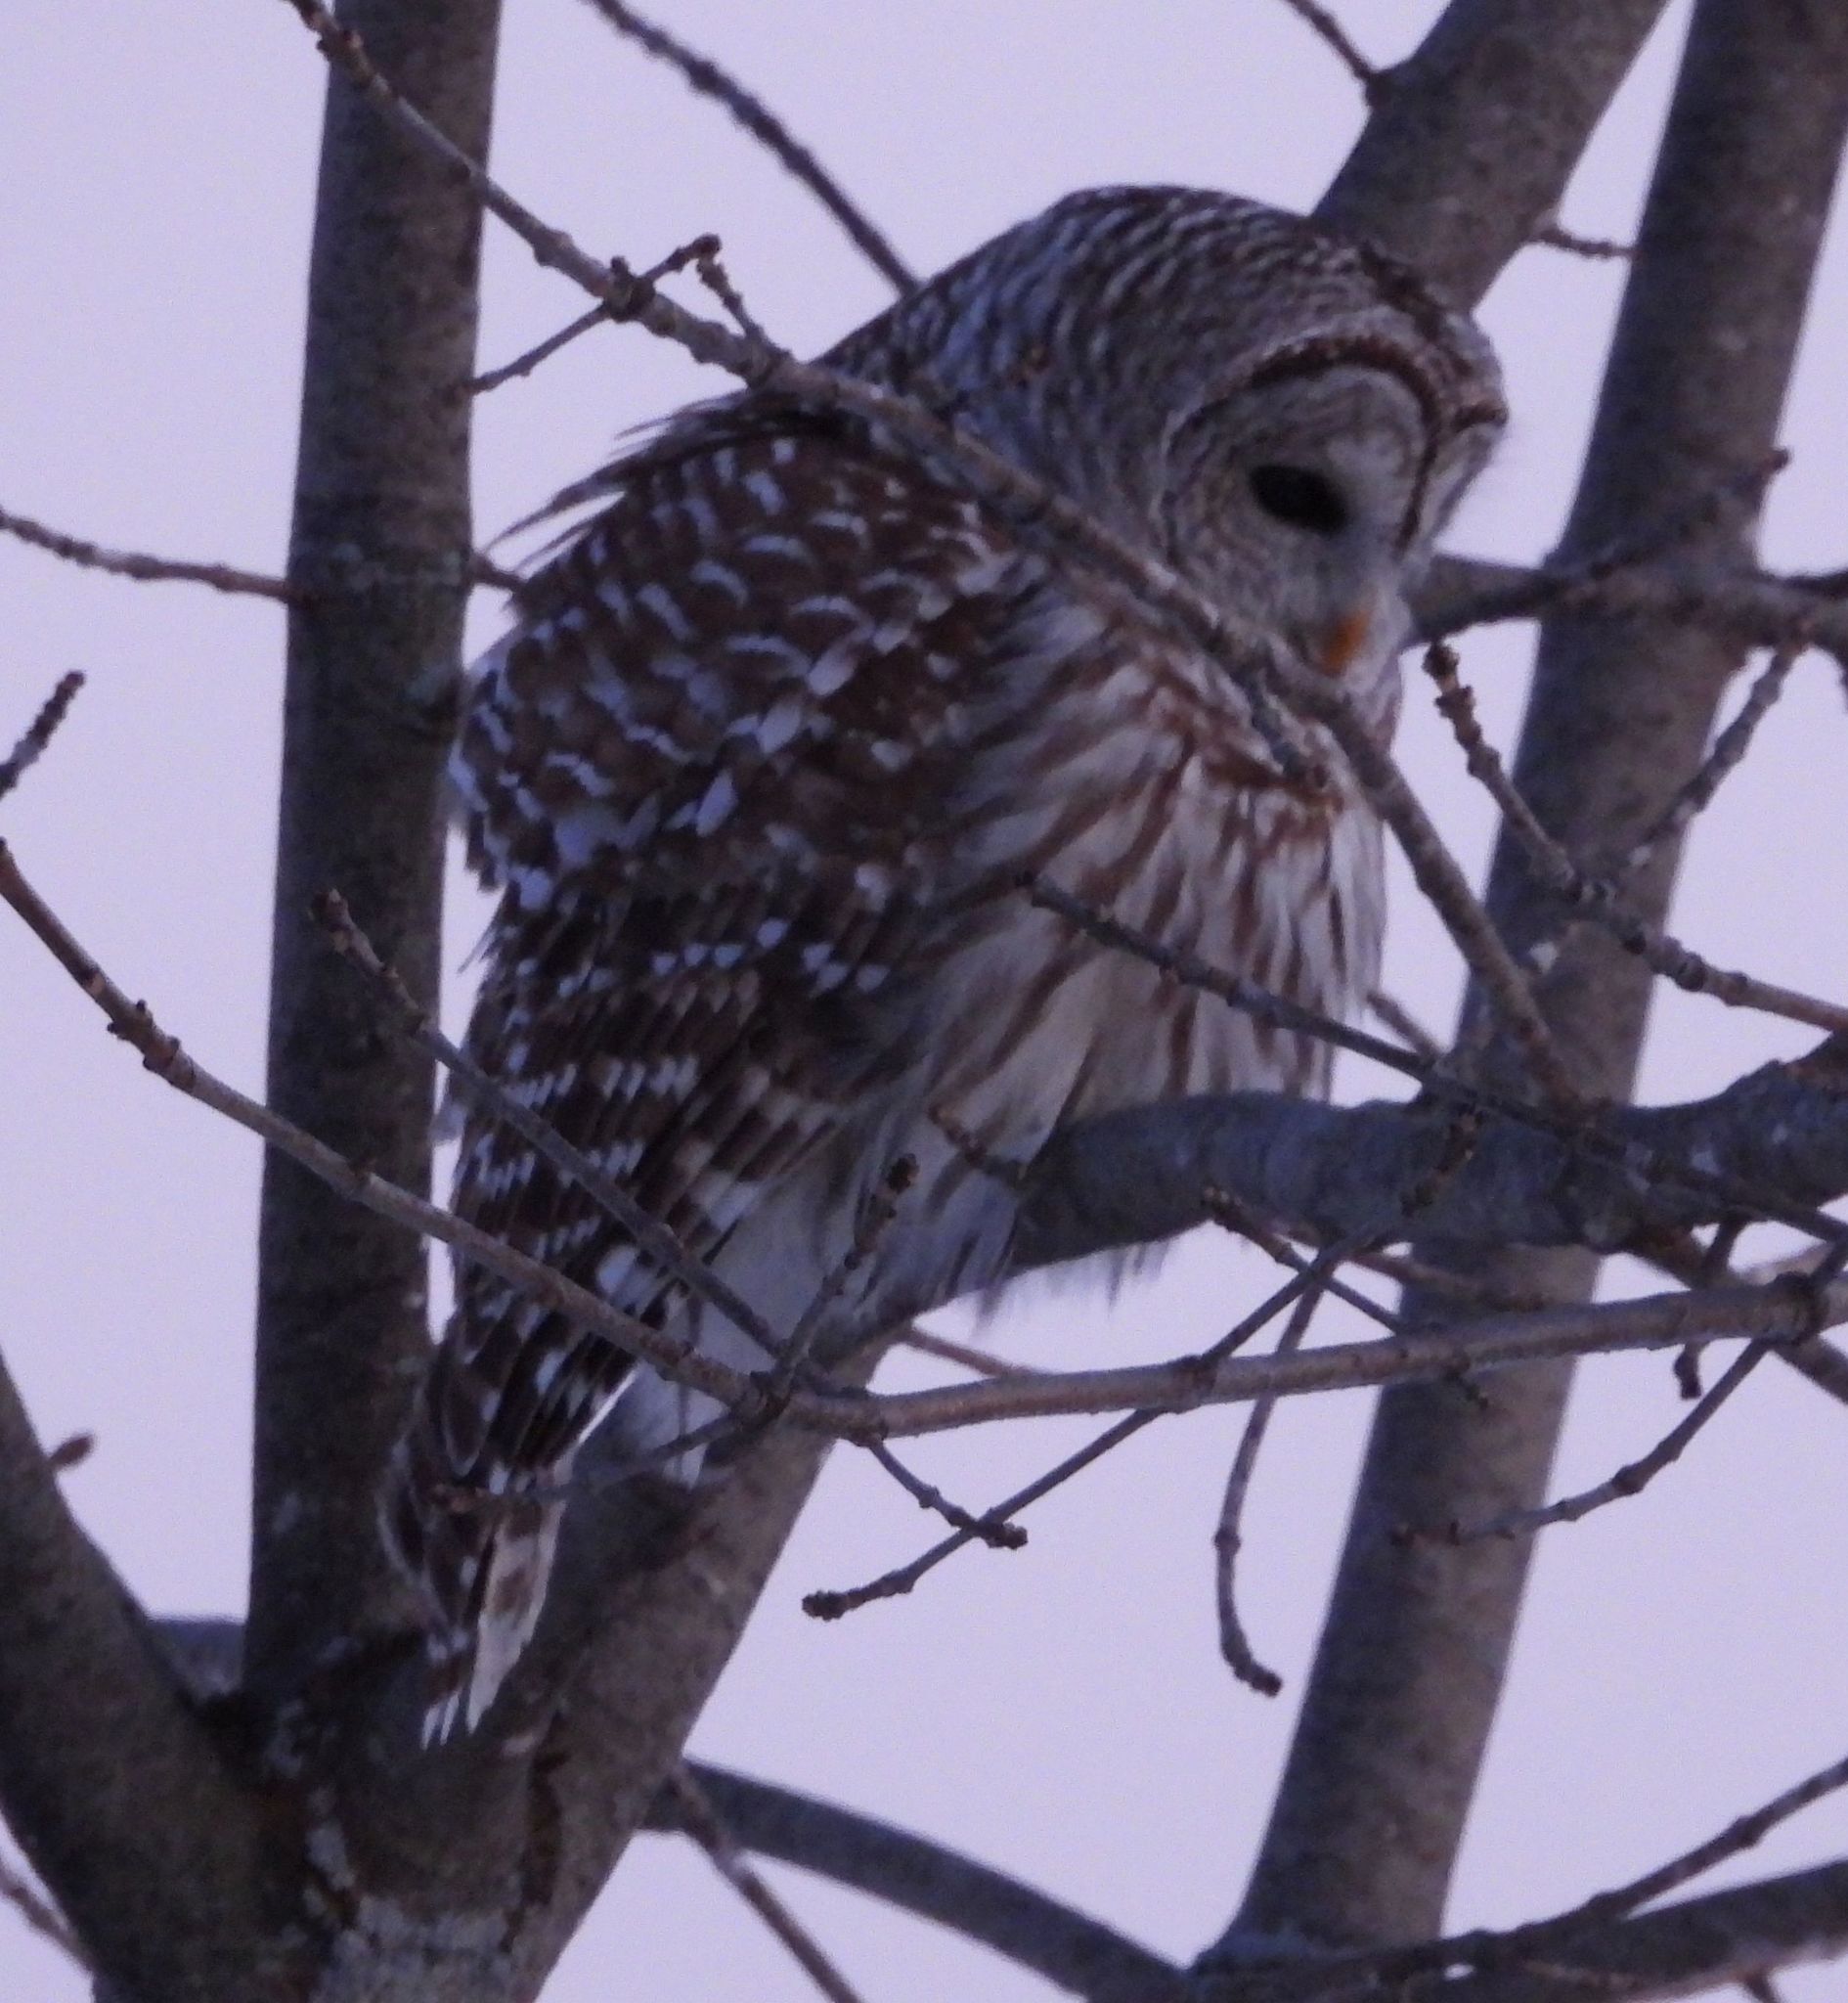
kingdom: Animalia
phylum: Chordata
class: Aves
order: Strigiformes
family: Strigidae
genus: Strix
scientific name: Strix varia
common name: Barred owl
